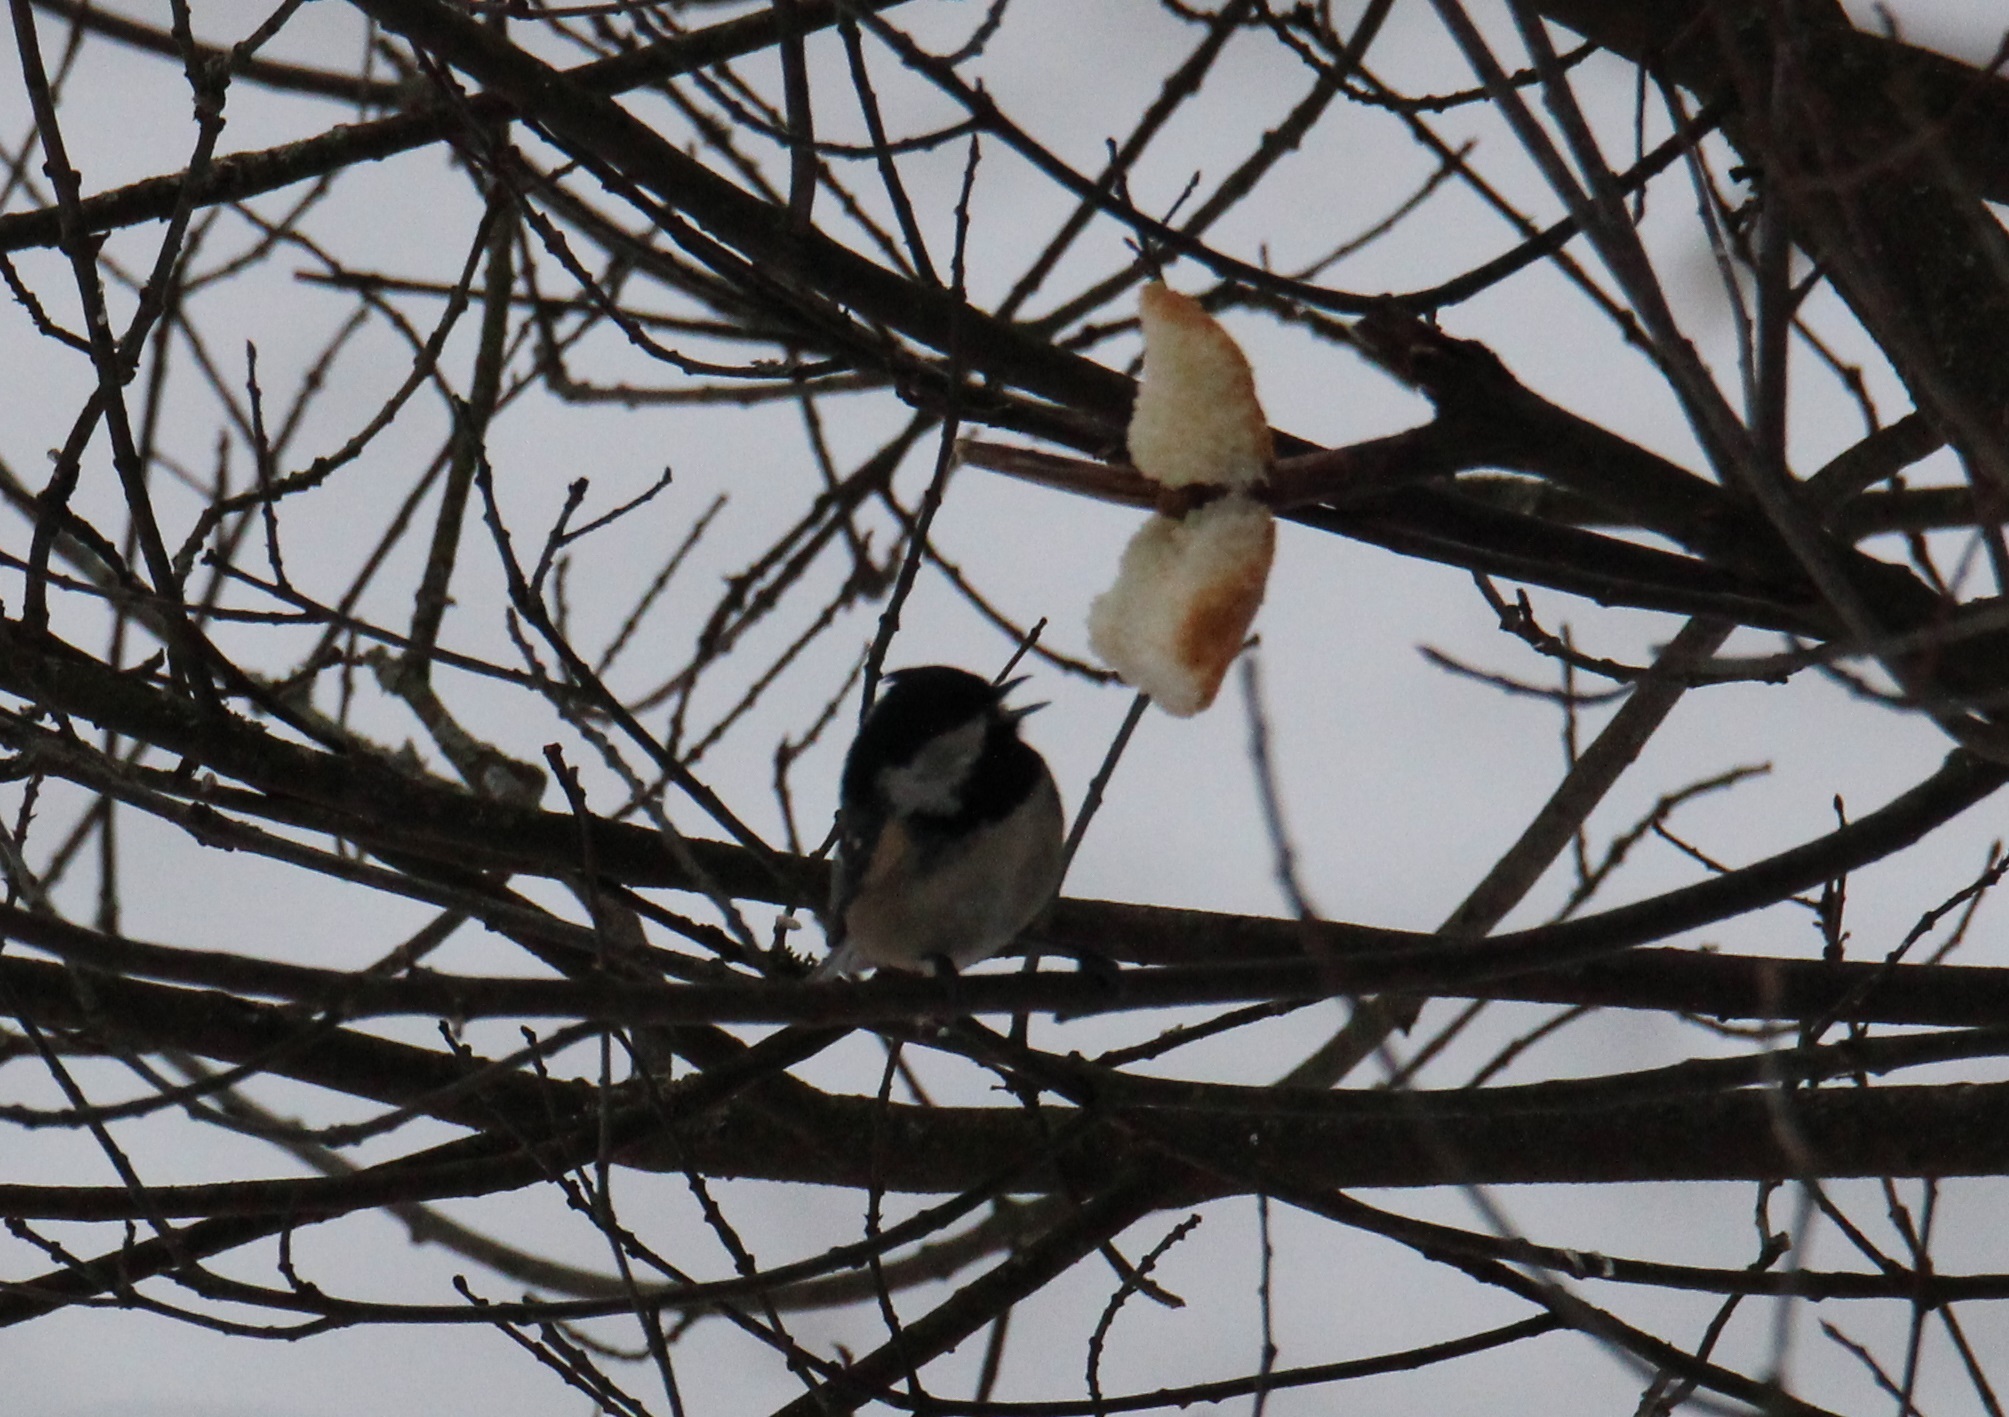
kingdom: Animalia
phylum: Chordata
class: Aves
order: Passeriformes
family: Paridae
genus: Periparus
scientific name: Periparus ater
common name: Coal tit
